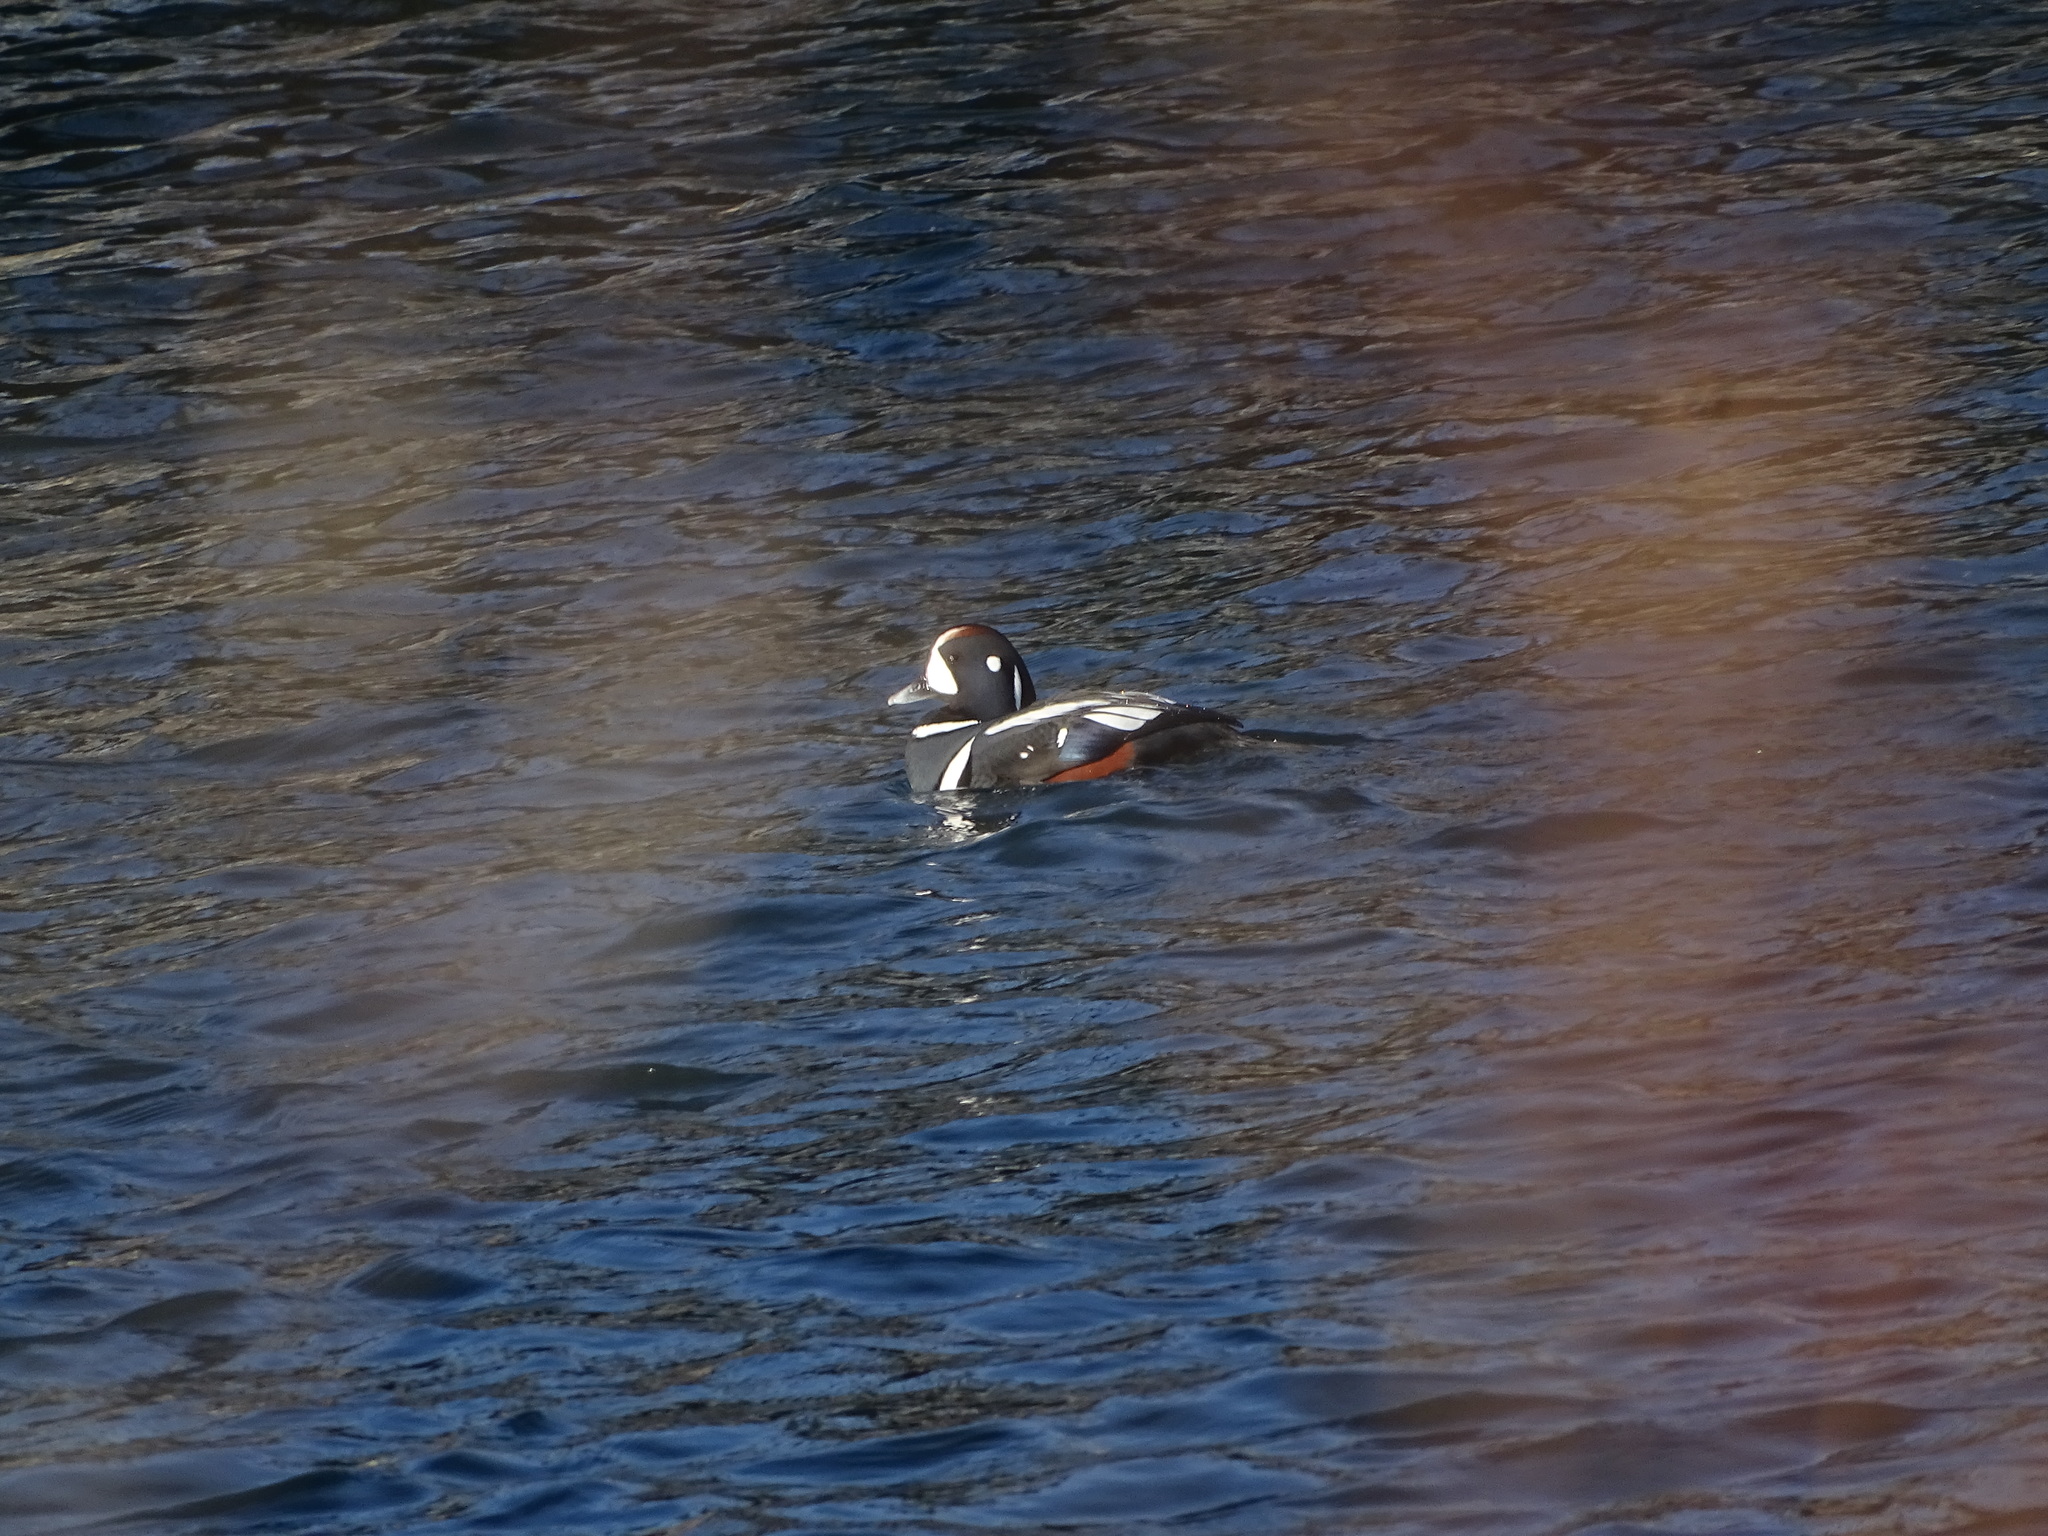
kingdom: Animalia
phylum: Chordata
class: Aves
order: Anseriformes
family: Anatidae
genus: Histrionicus
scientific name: Histrionicus histrionicus
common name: Harlequin duck
